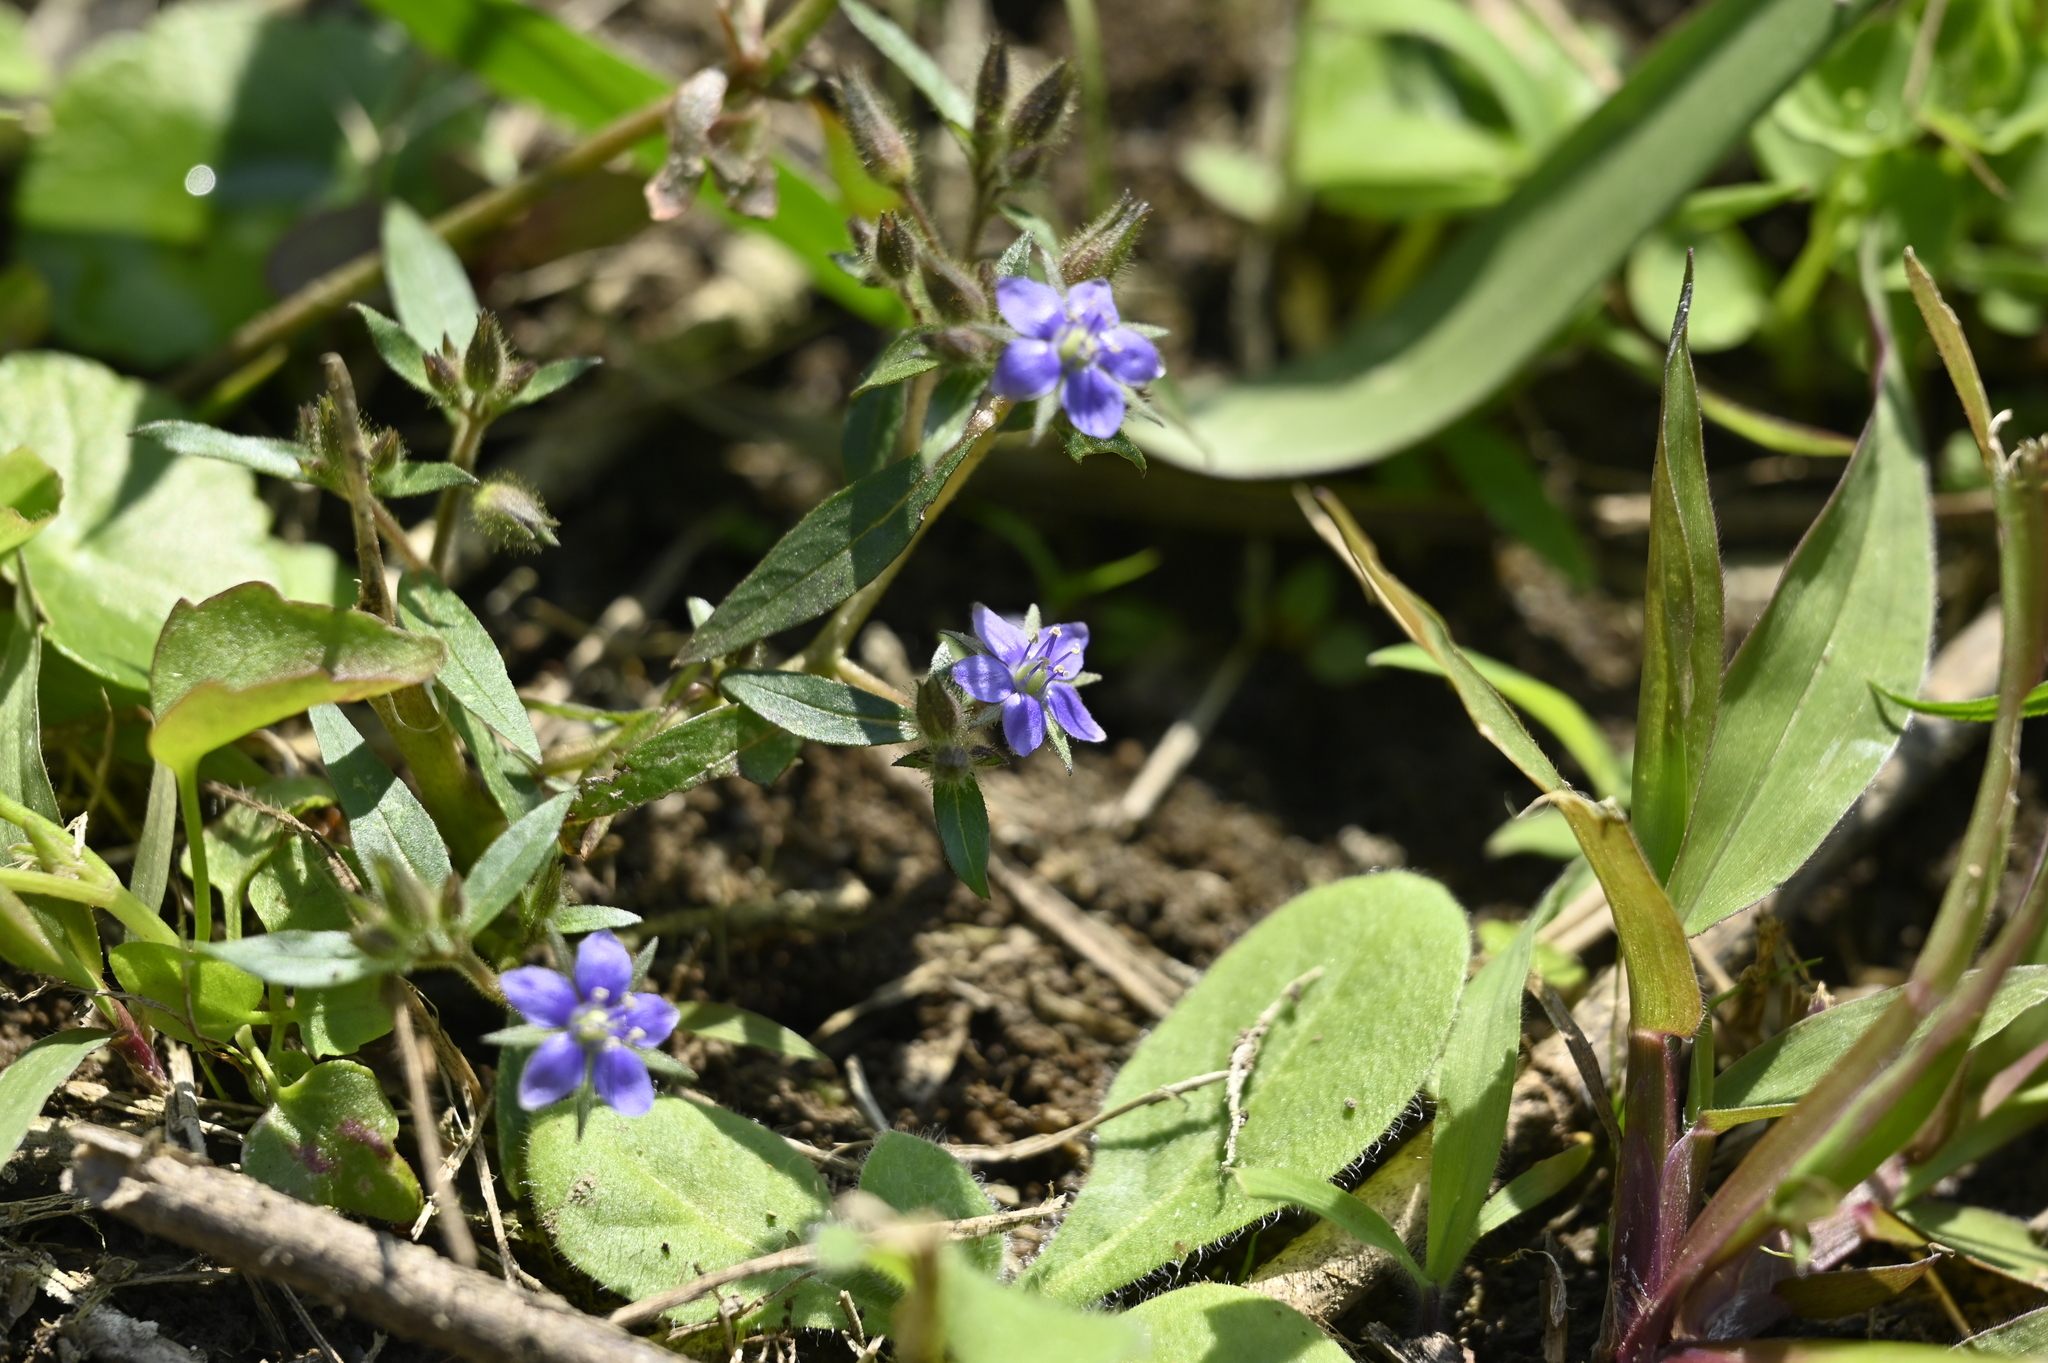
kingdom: Plantae
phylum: Tracheophyta
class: Magnoliopsida
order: Solanales
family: Hydroleaceae
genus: Hydrolea
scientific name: Hydrolea zeylanica
